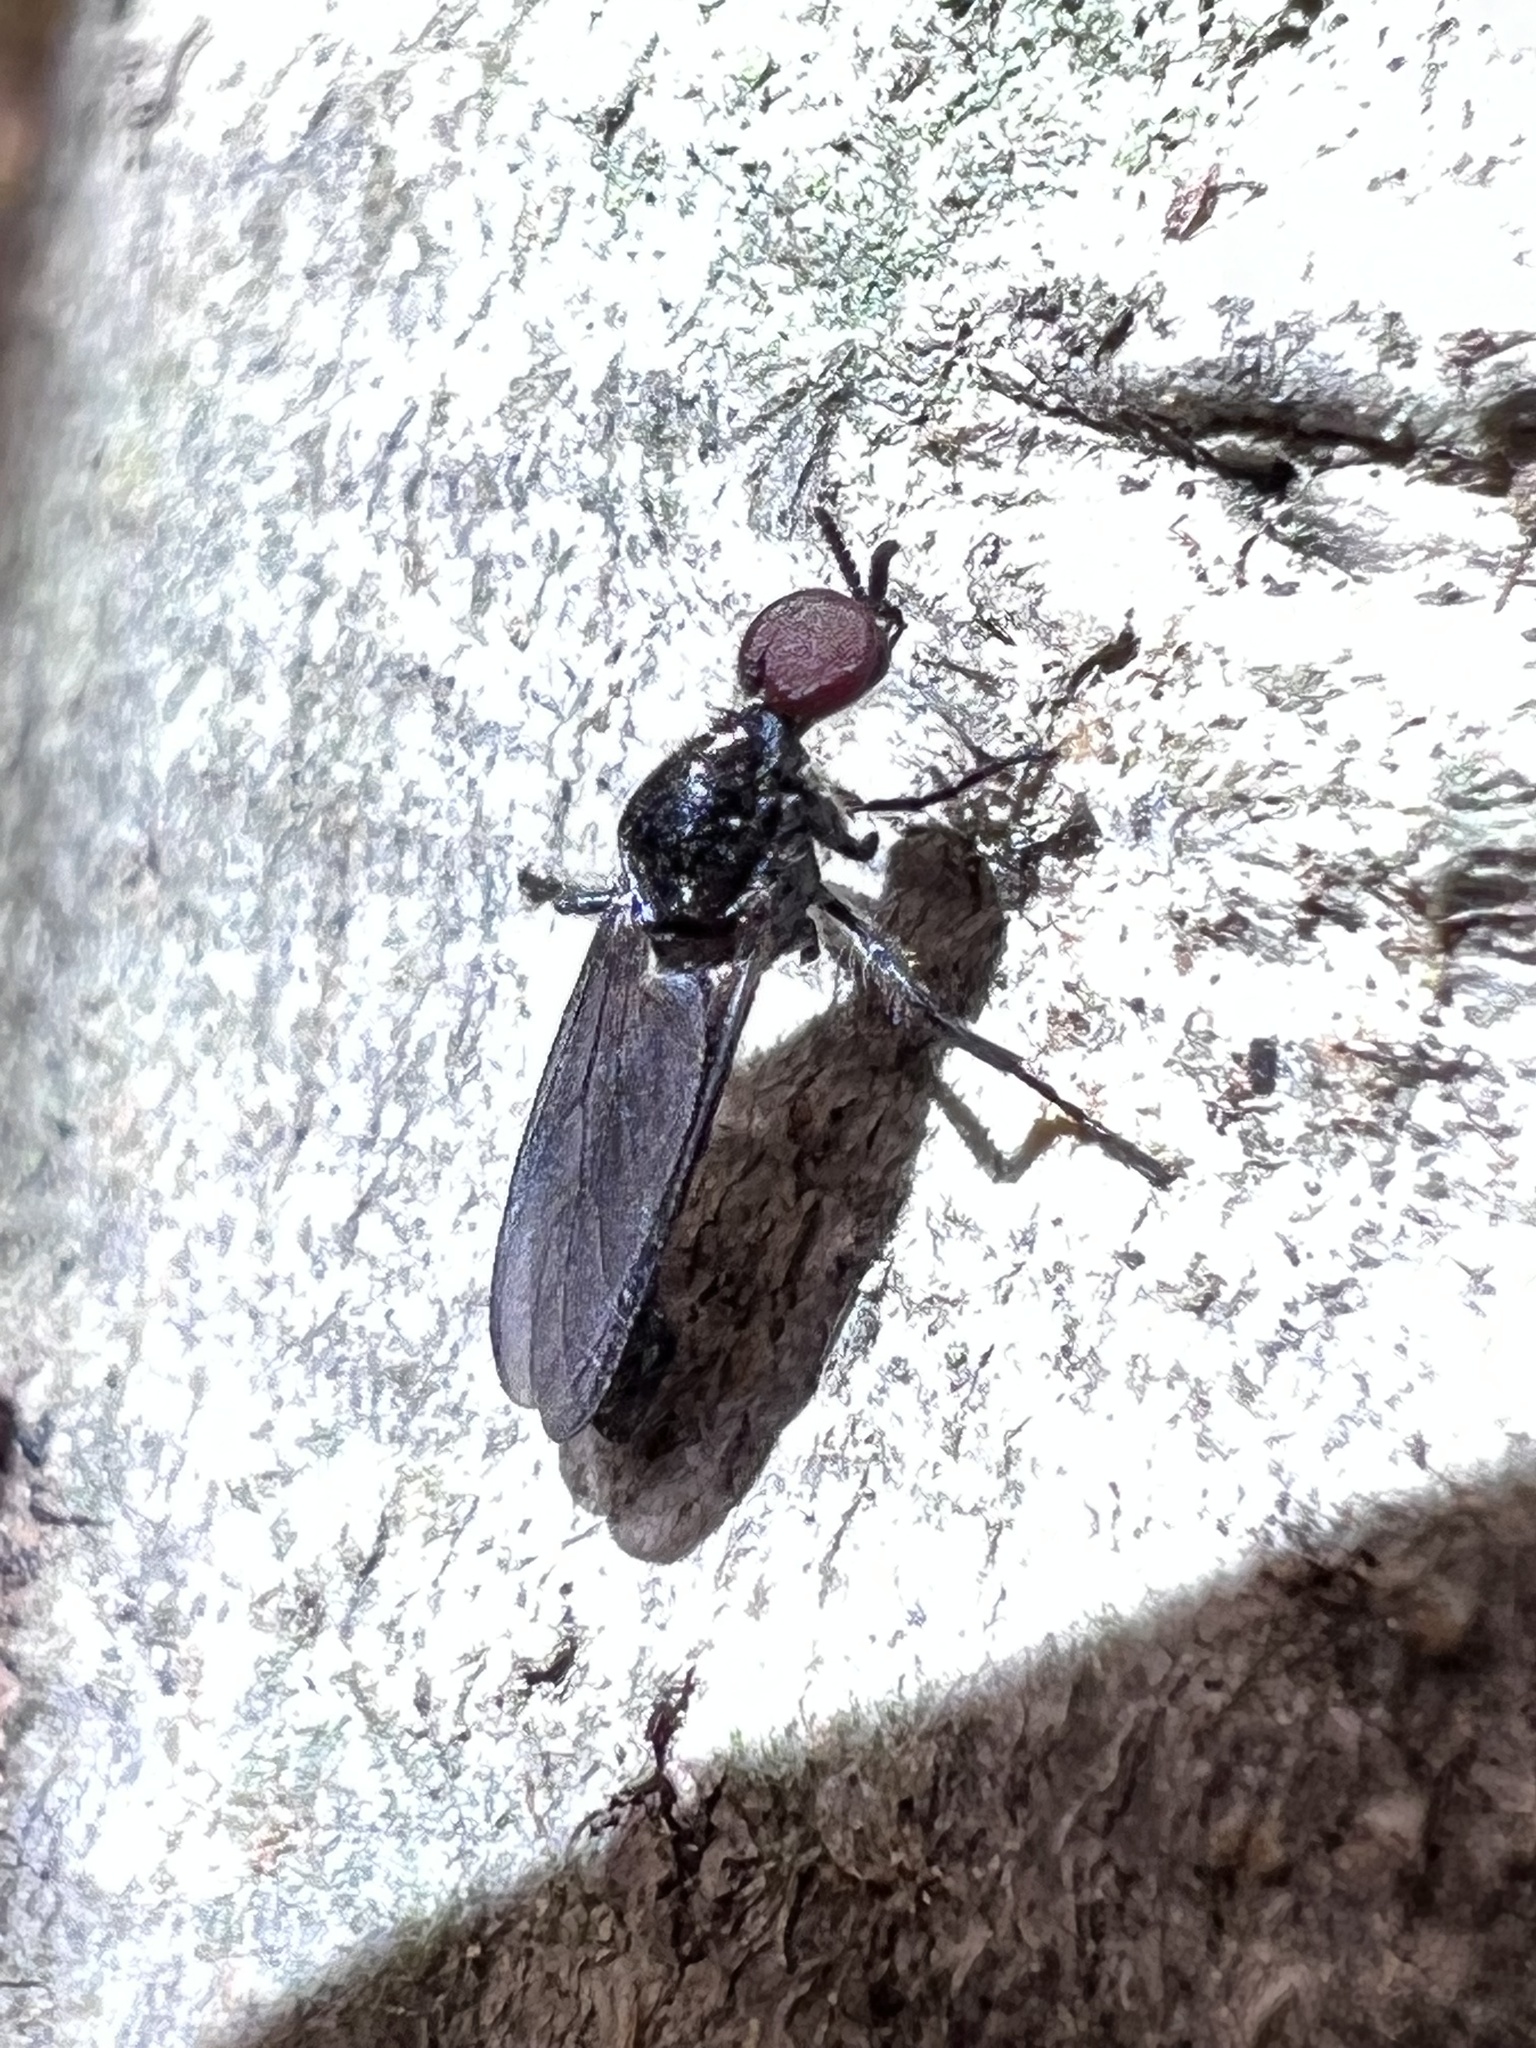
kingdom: Animalia
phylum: Arthropoda
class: Insecta
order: Diptera
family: Bibionidae
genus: Dilophus
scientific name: Dilophus serotinus
